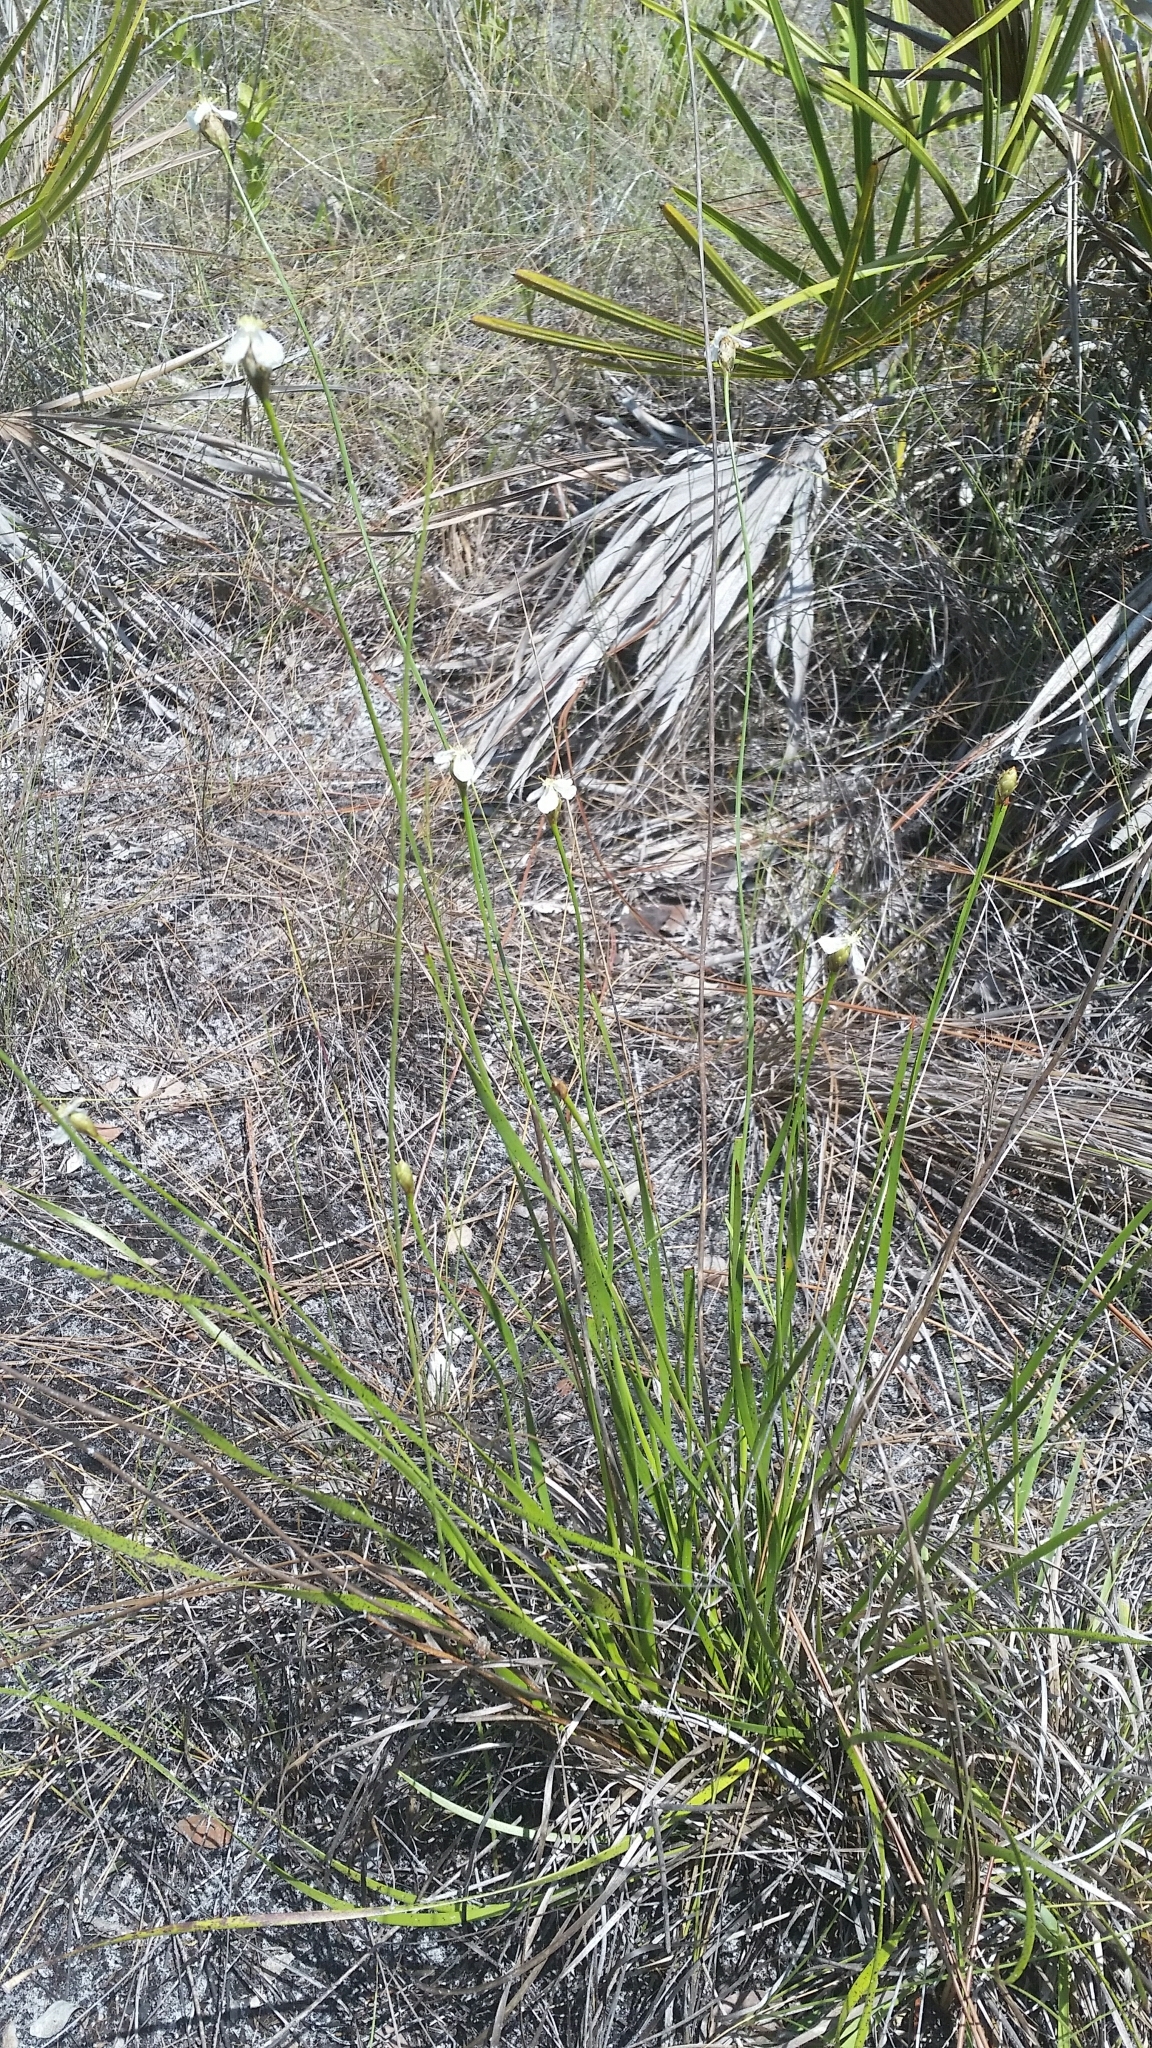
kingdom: Plantae
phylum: Tracheophyta
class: Liliopsida
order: Poales
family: Xyridaceae
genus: Xyris
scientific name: Xyris caroliniana
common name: Carolina yellow-eyed-grass
